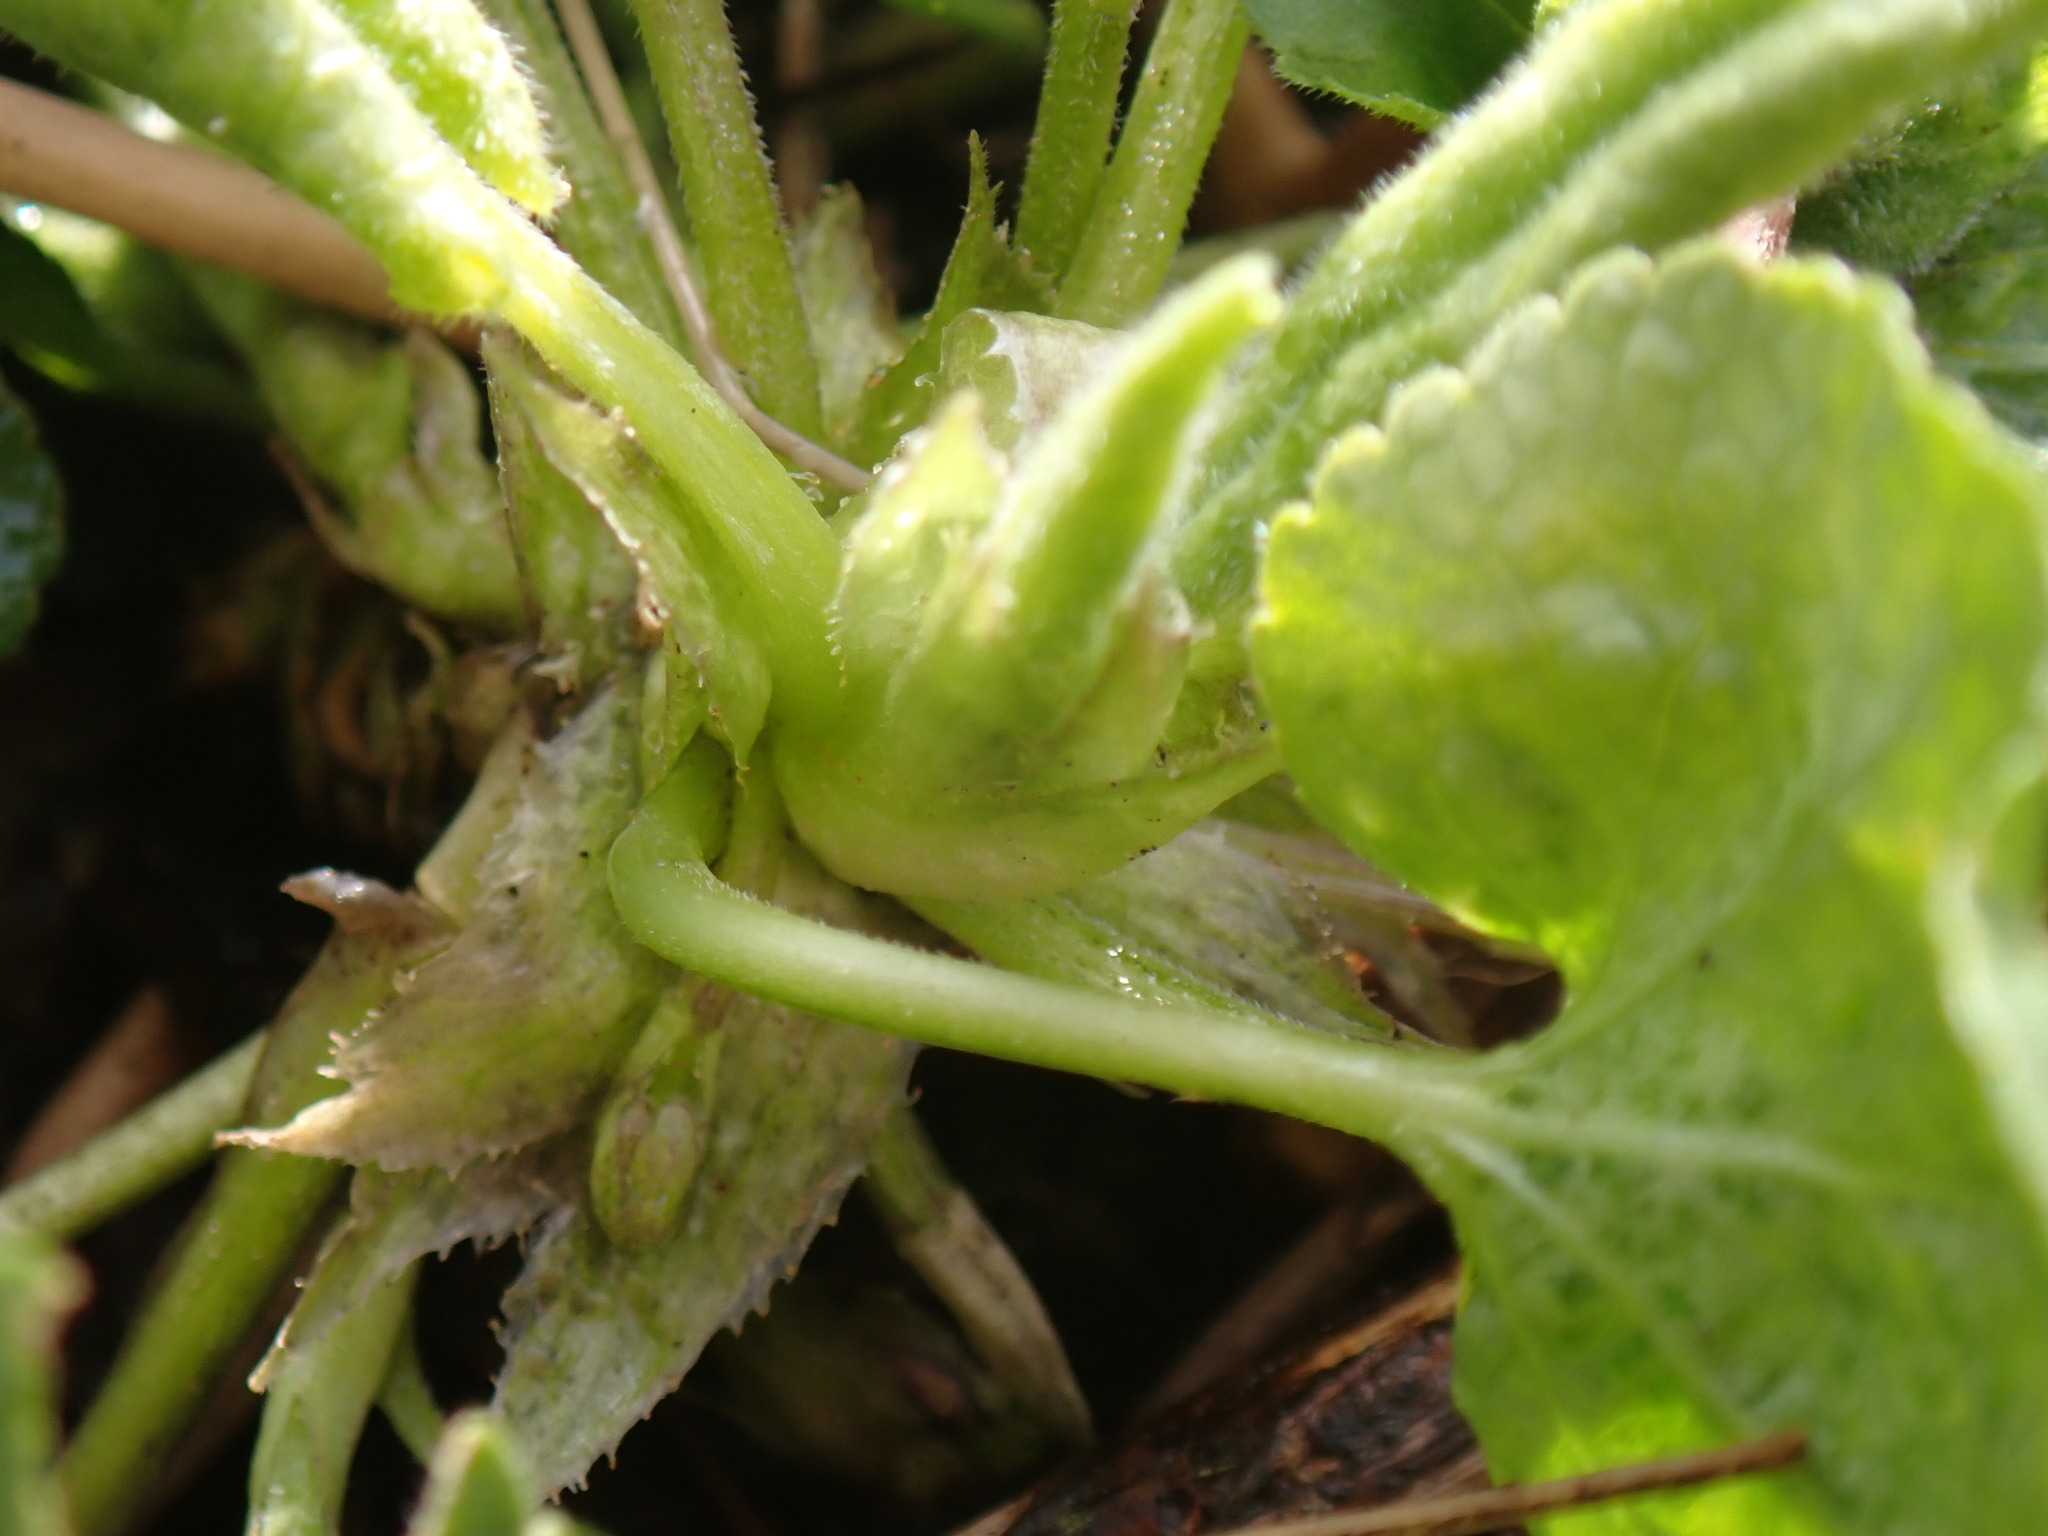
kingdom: Plantae
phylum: Tracheophyta
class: Magnoliopsida
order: Malpighiales
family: Violaceae
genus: Viola
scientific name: Viola odorata
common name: Sweet violet
